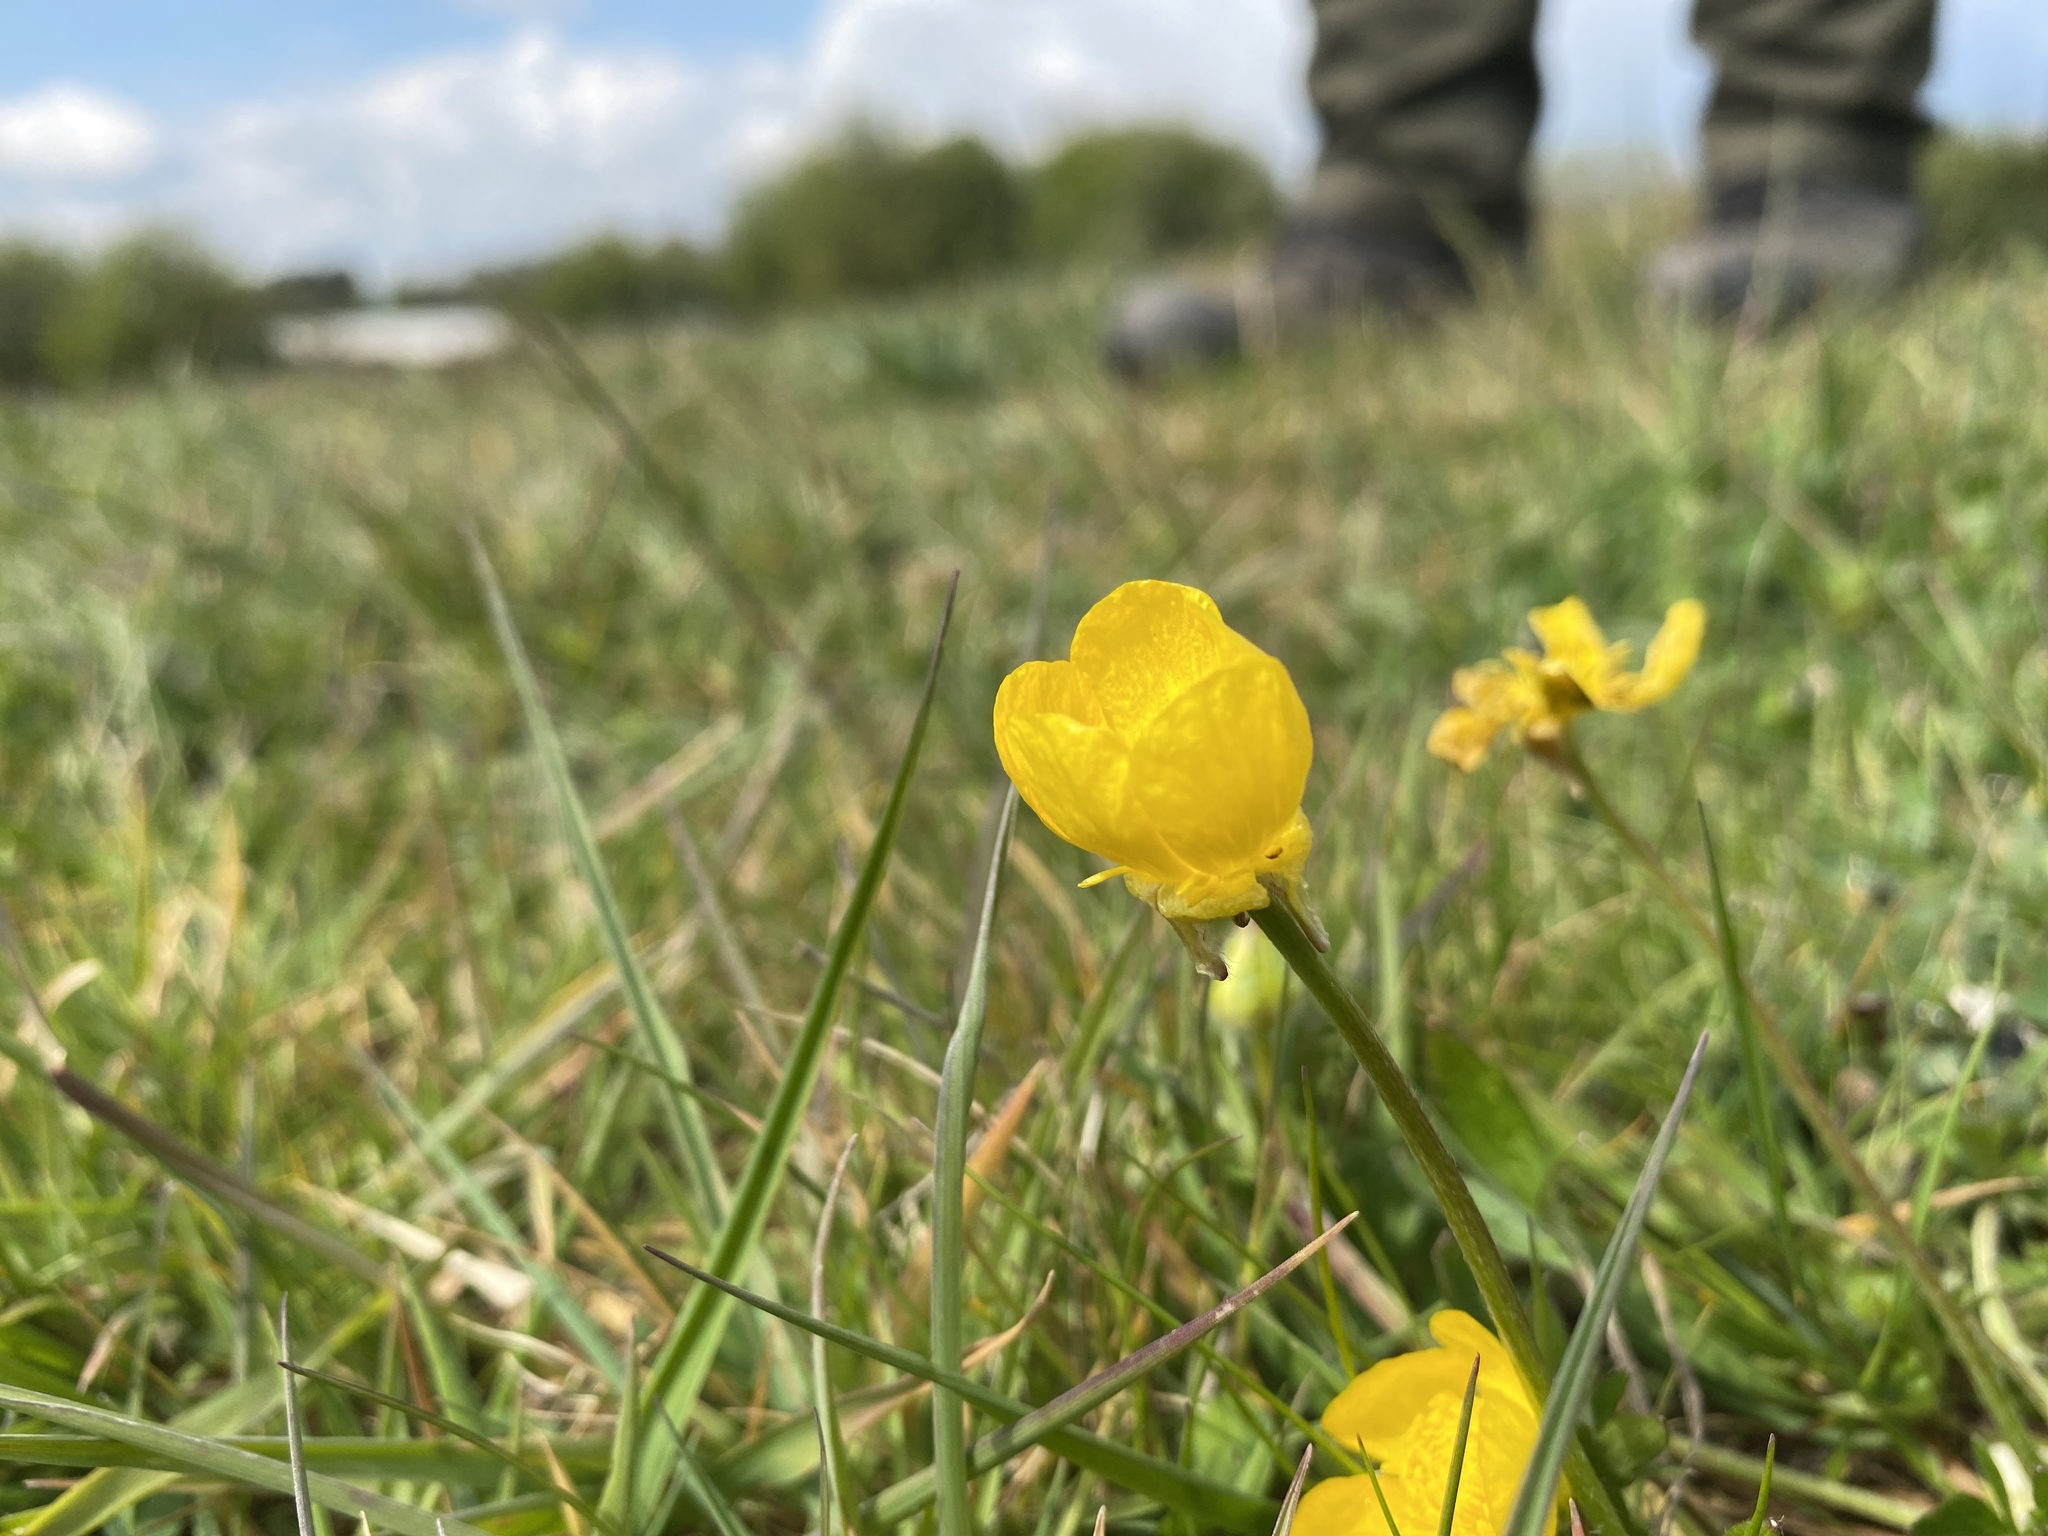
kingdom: Plantae
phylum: Tracheophyta
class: Magnoliopsida
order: Ranunculales
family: Ranunculaceae
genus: Ranunculus
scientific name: Ranunculus bulbosus
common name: Bulbous buttercup
